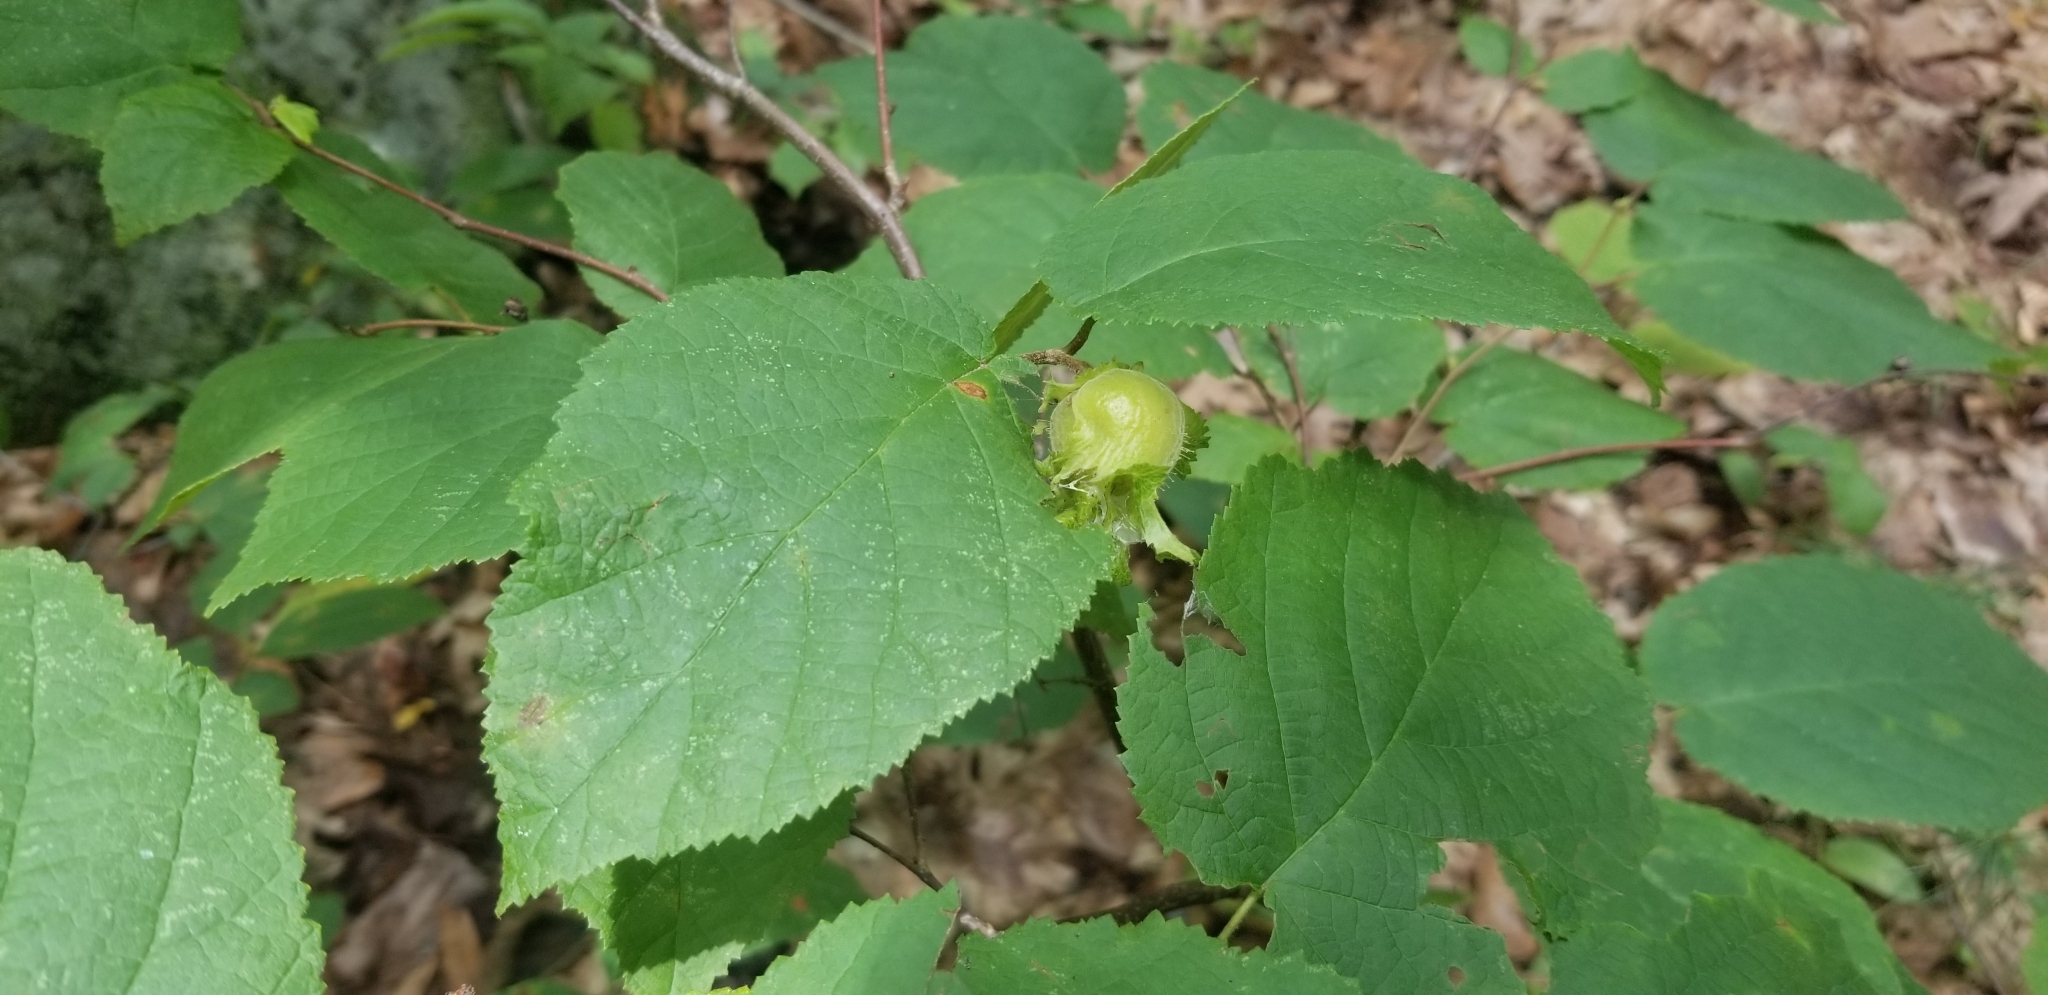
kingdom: Plantae
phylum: Tracheophyta
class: Magnoliopsida
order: Fagales
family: Betulaceae
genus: Corylus
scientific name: Corylus americana
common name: American hazel
